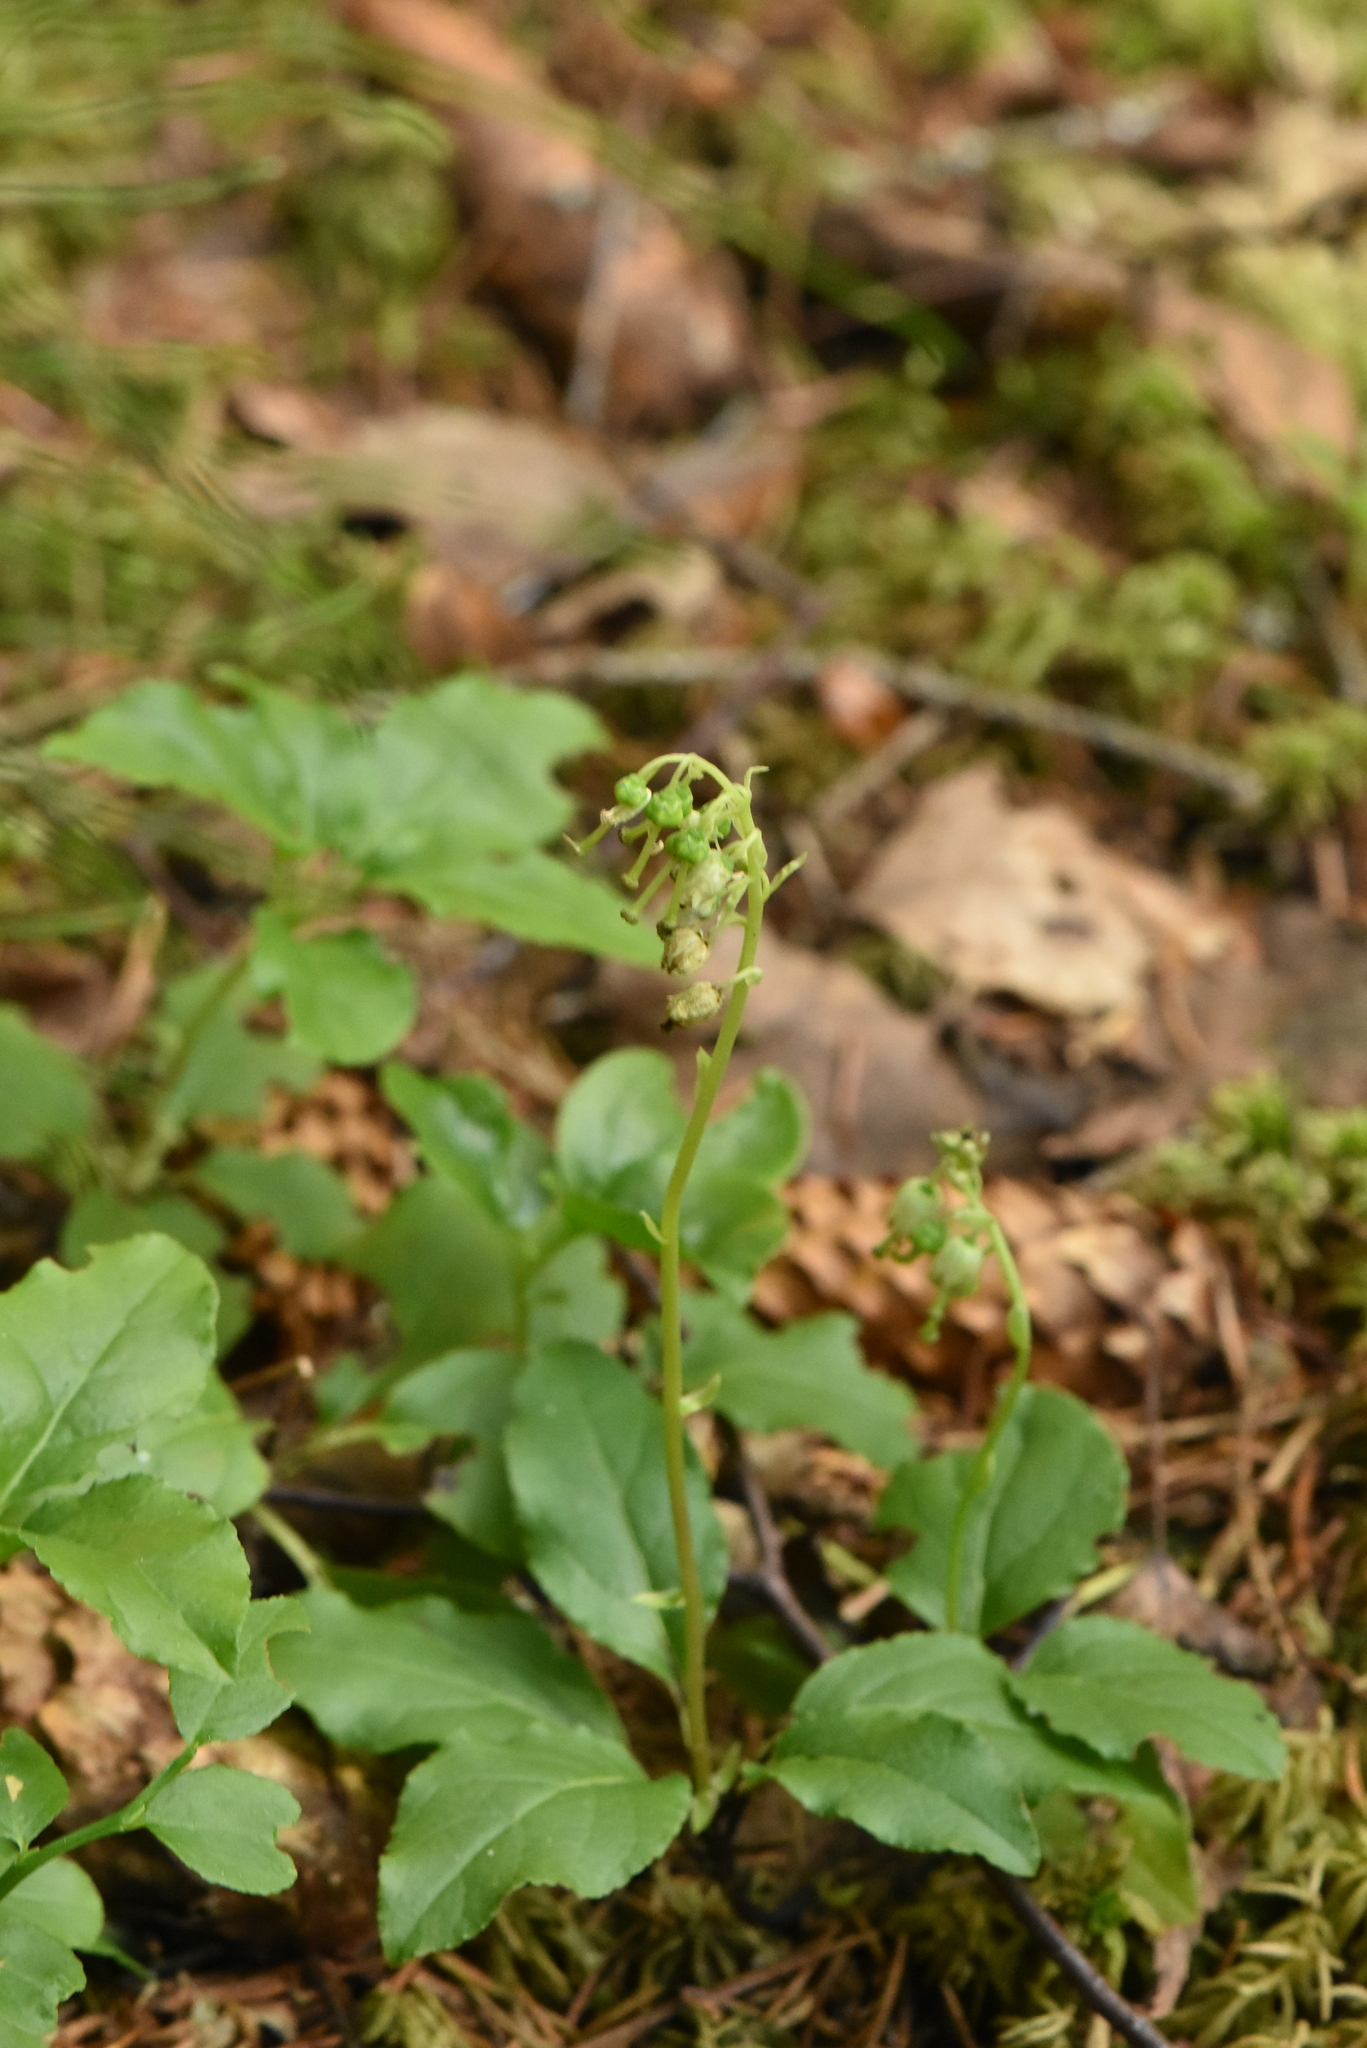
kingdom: Plantae
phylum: Tracheophyta
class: Magnoliopsida
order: Ericales
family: Ericaceae
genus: Orthilia
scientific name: Orthilia secunda
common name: One-sided orthilia
